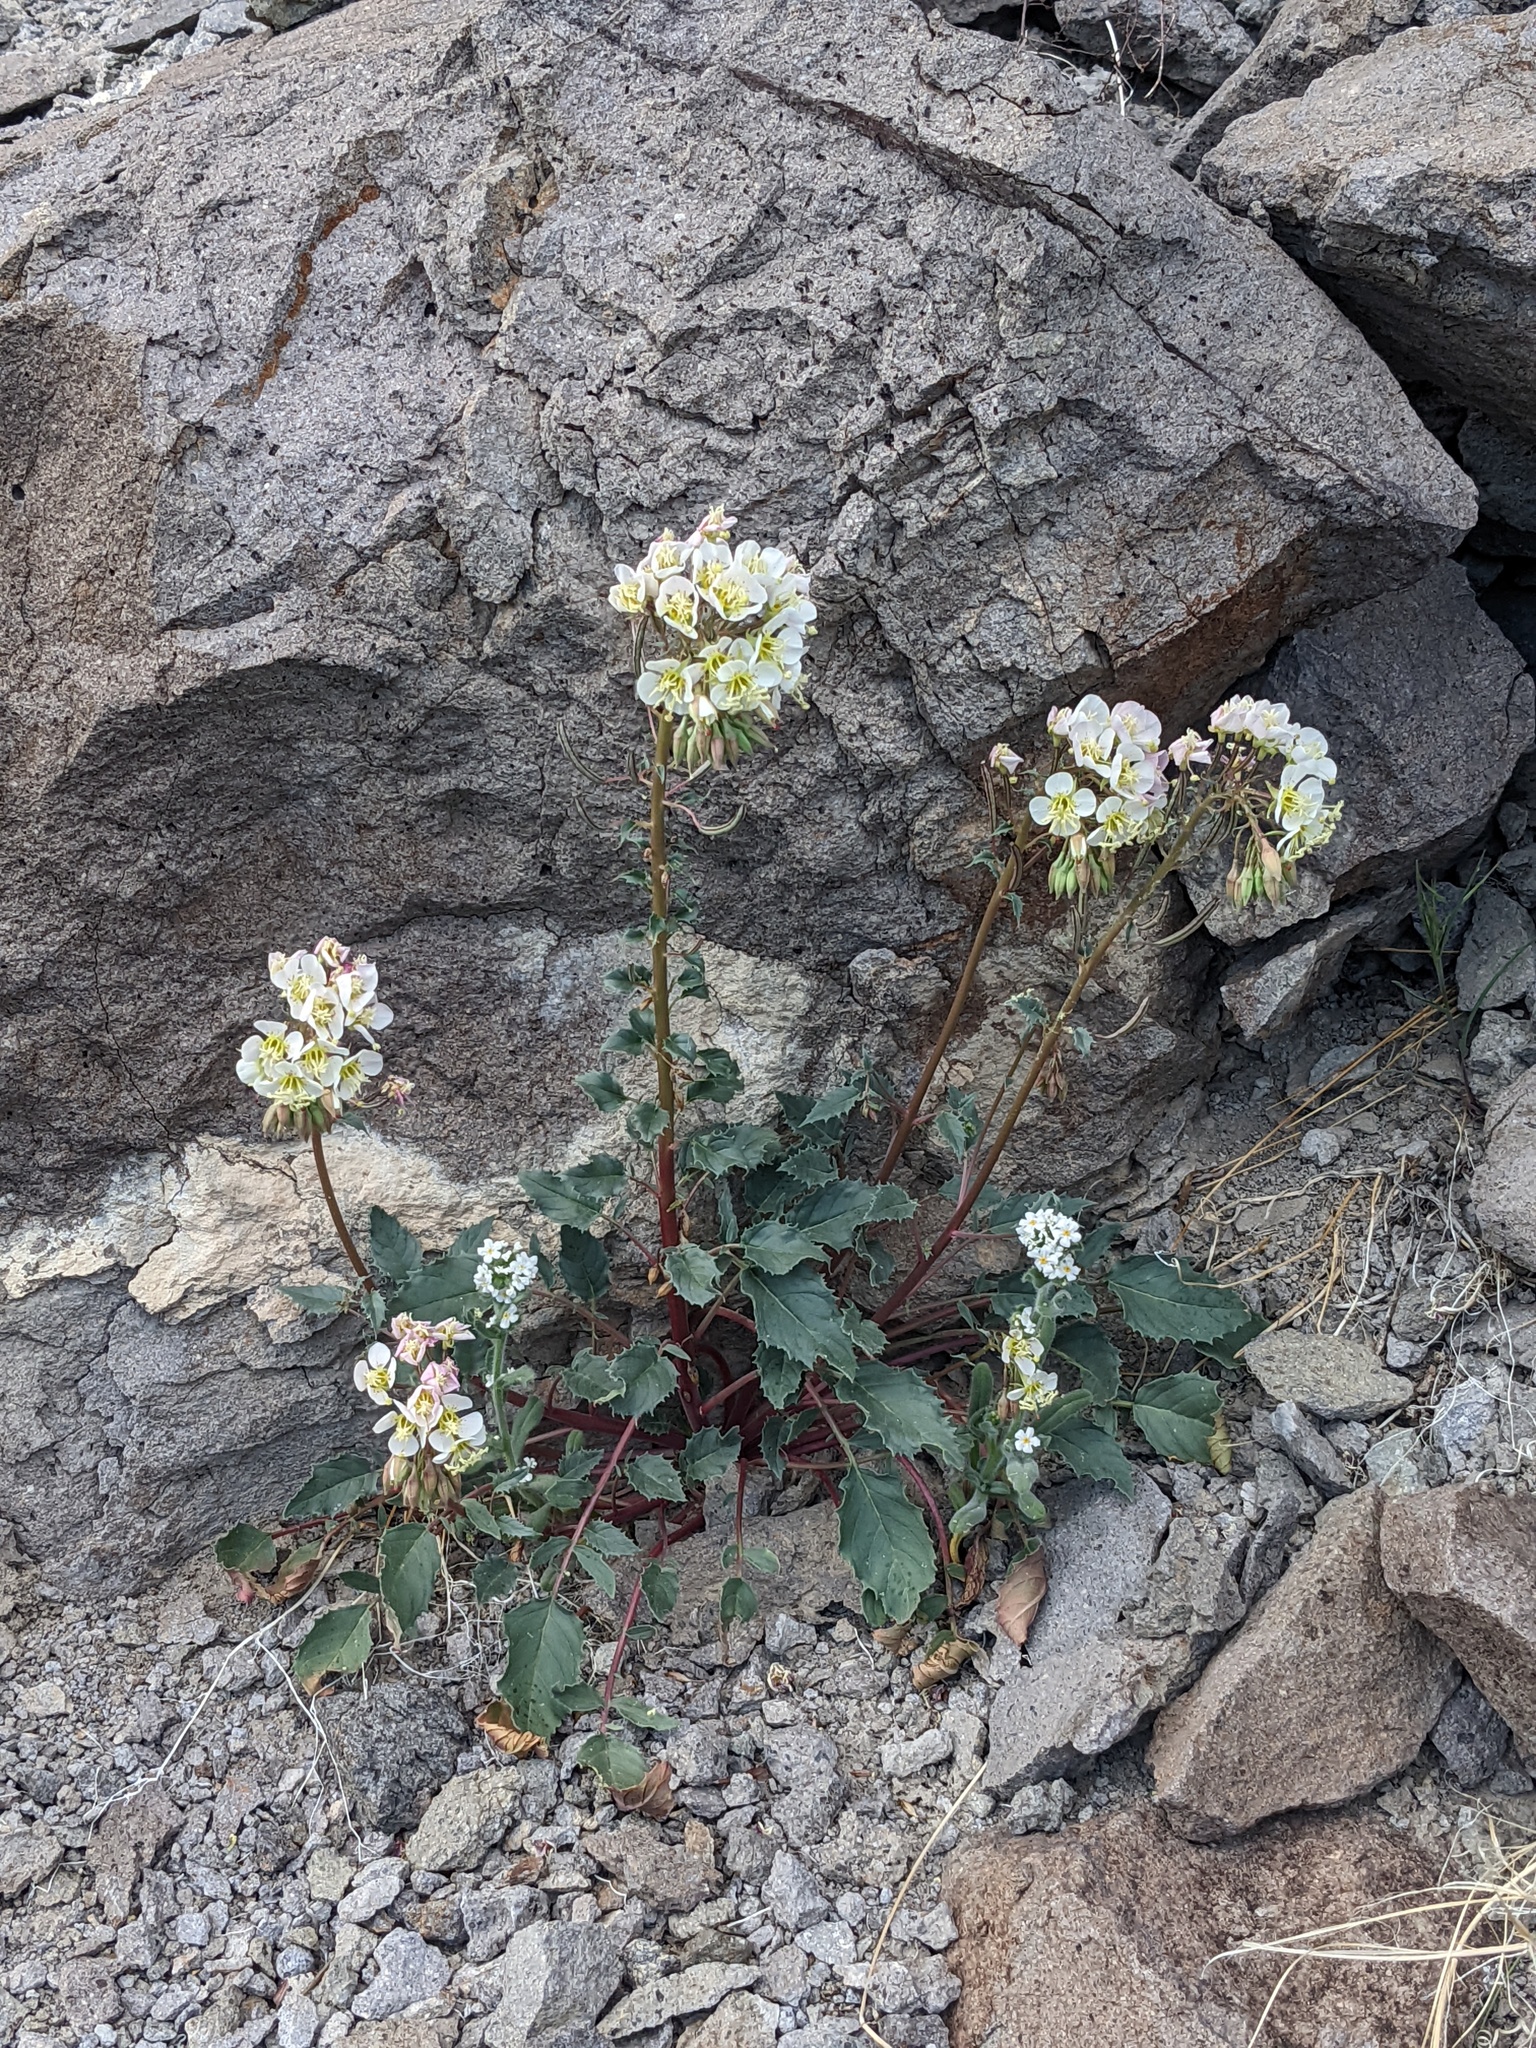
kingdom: Plantae
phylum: Tracheophyta
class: Magnoliopsida
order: Myrtales
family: Onagraceae
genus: Chylismia
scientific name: Chylismia claviformis
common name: Browneyes
